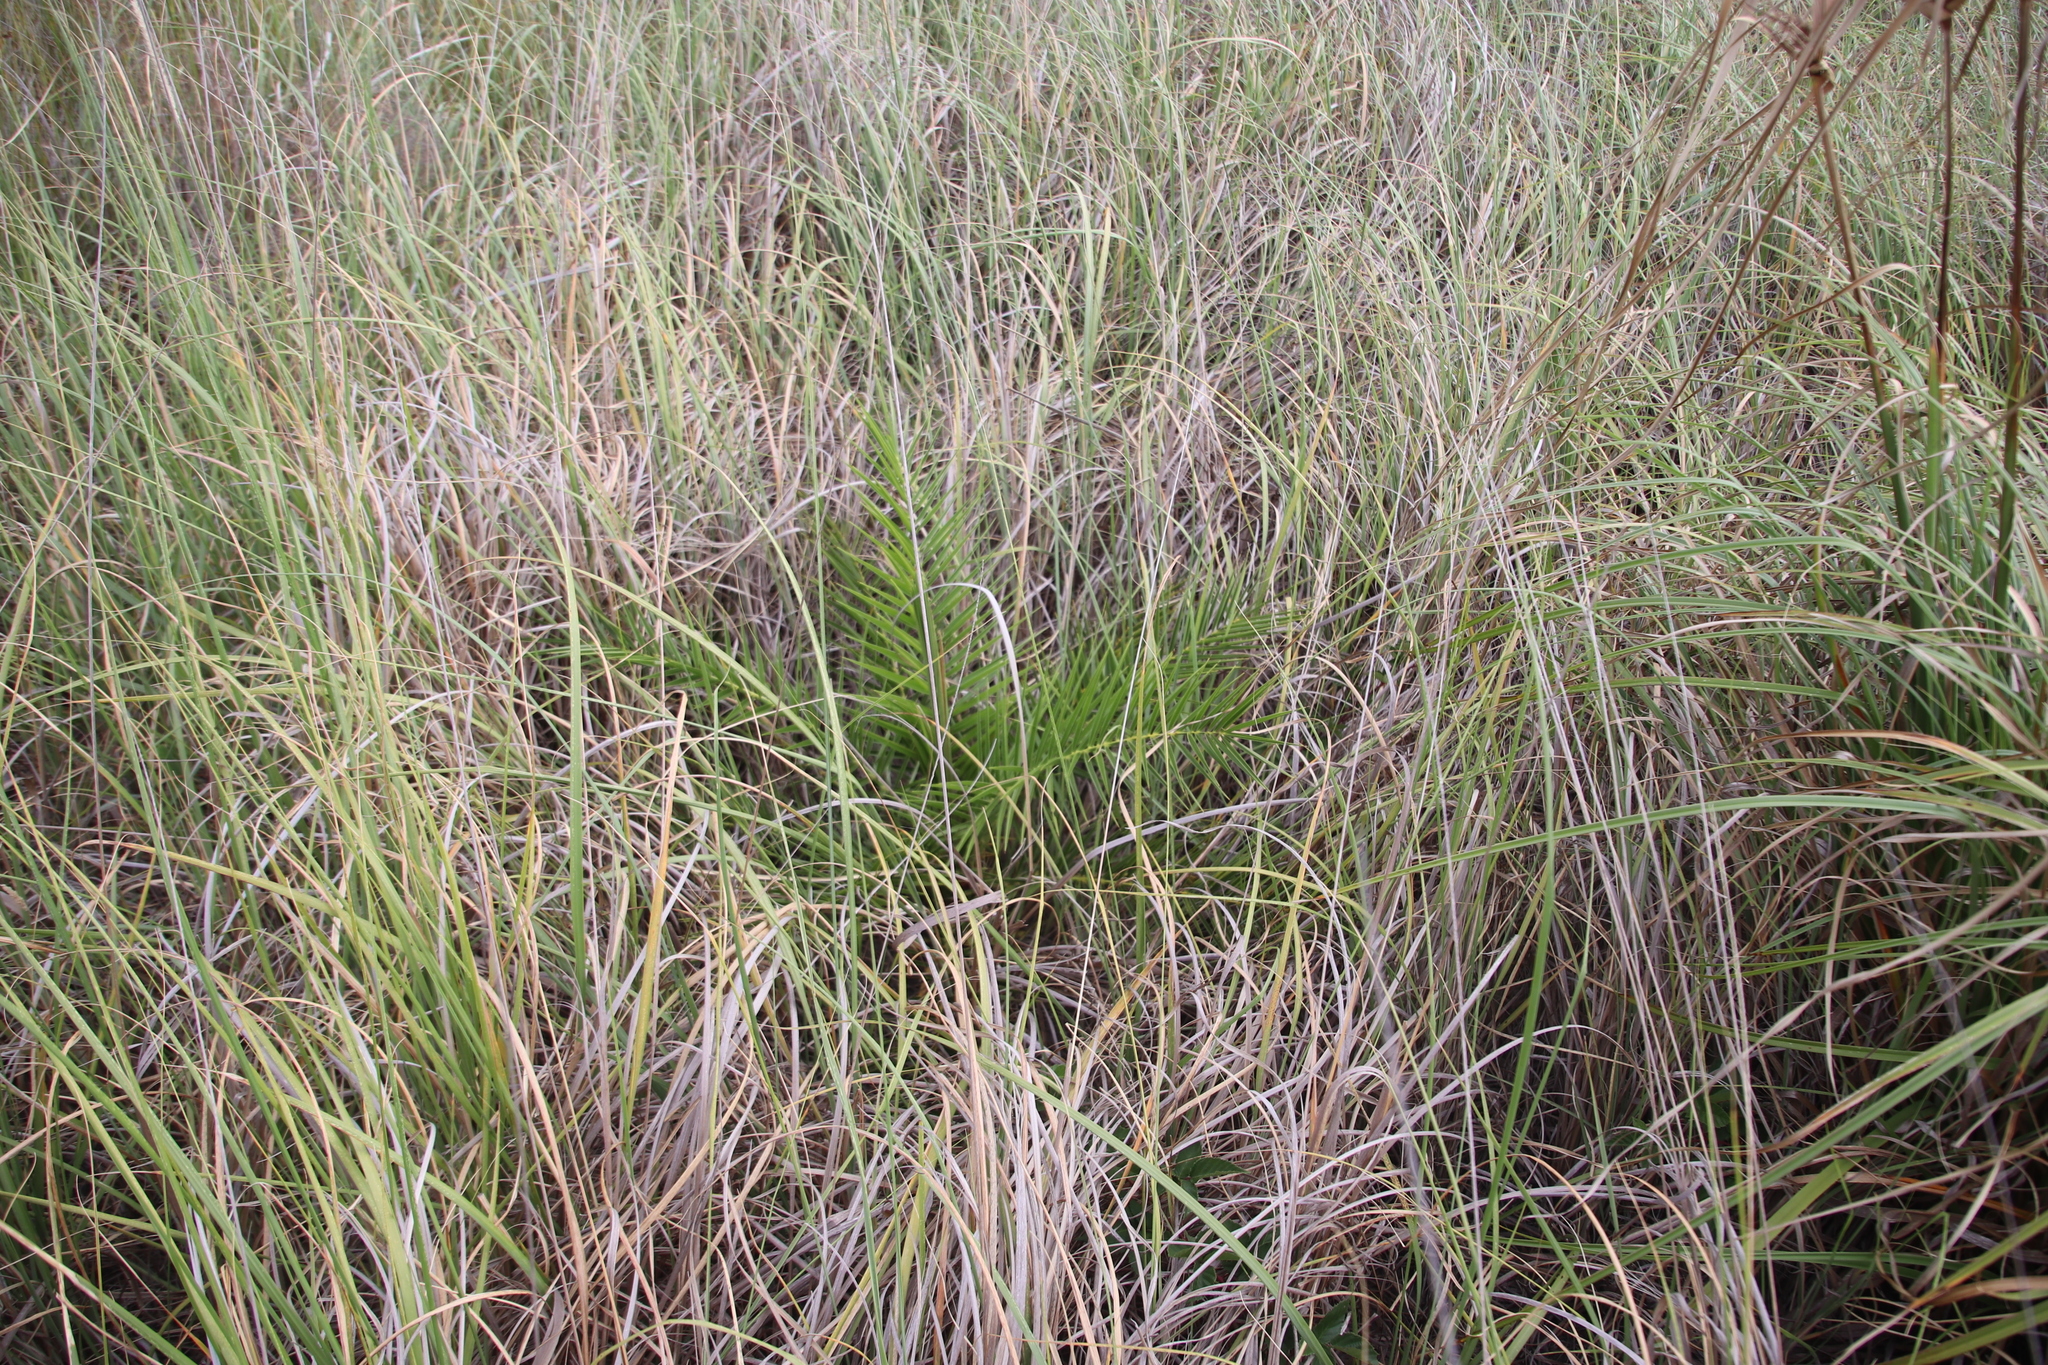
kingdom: Plantae
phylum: Tracheophyta
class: Liliopsida
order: Arecales
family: Arecaceae
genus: Phoenix
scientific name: Phoenix reclinata
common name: Senegal date palm
